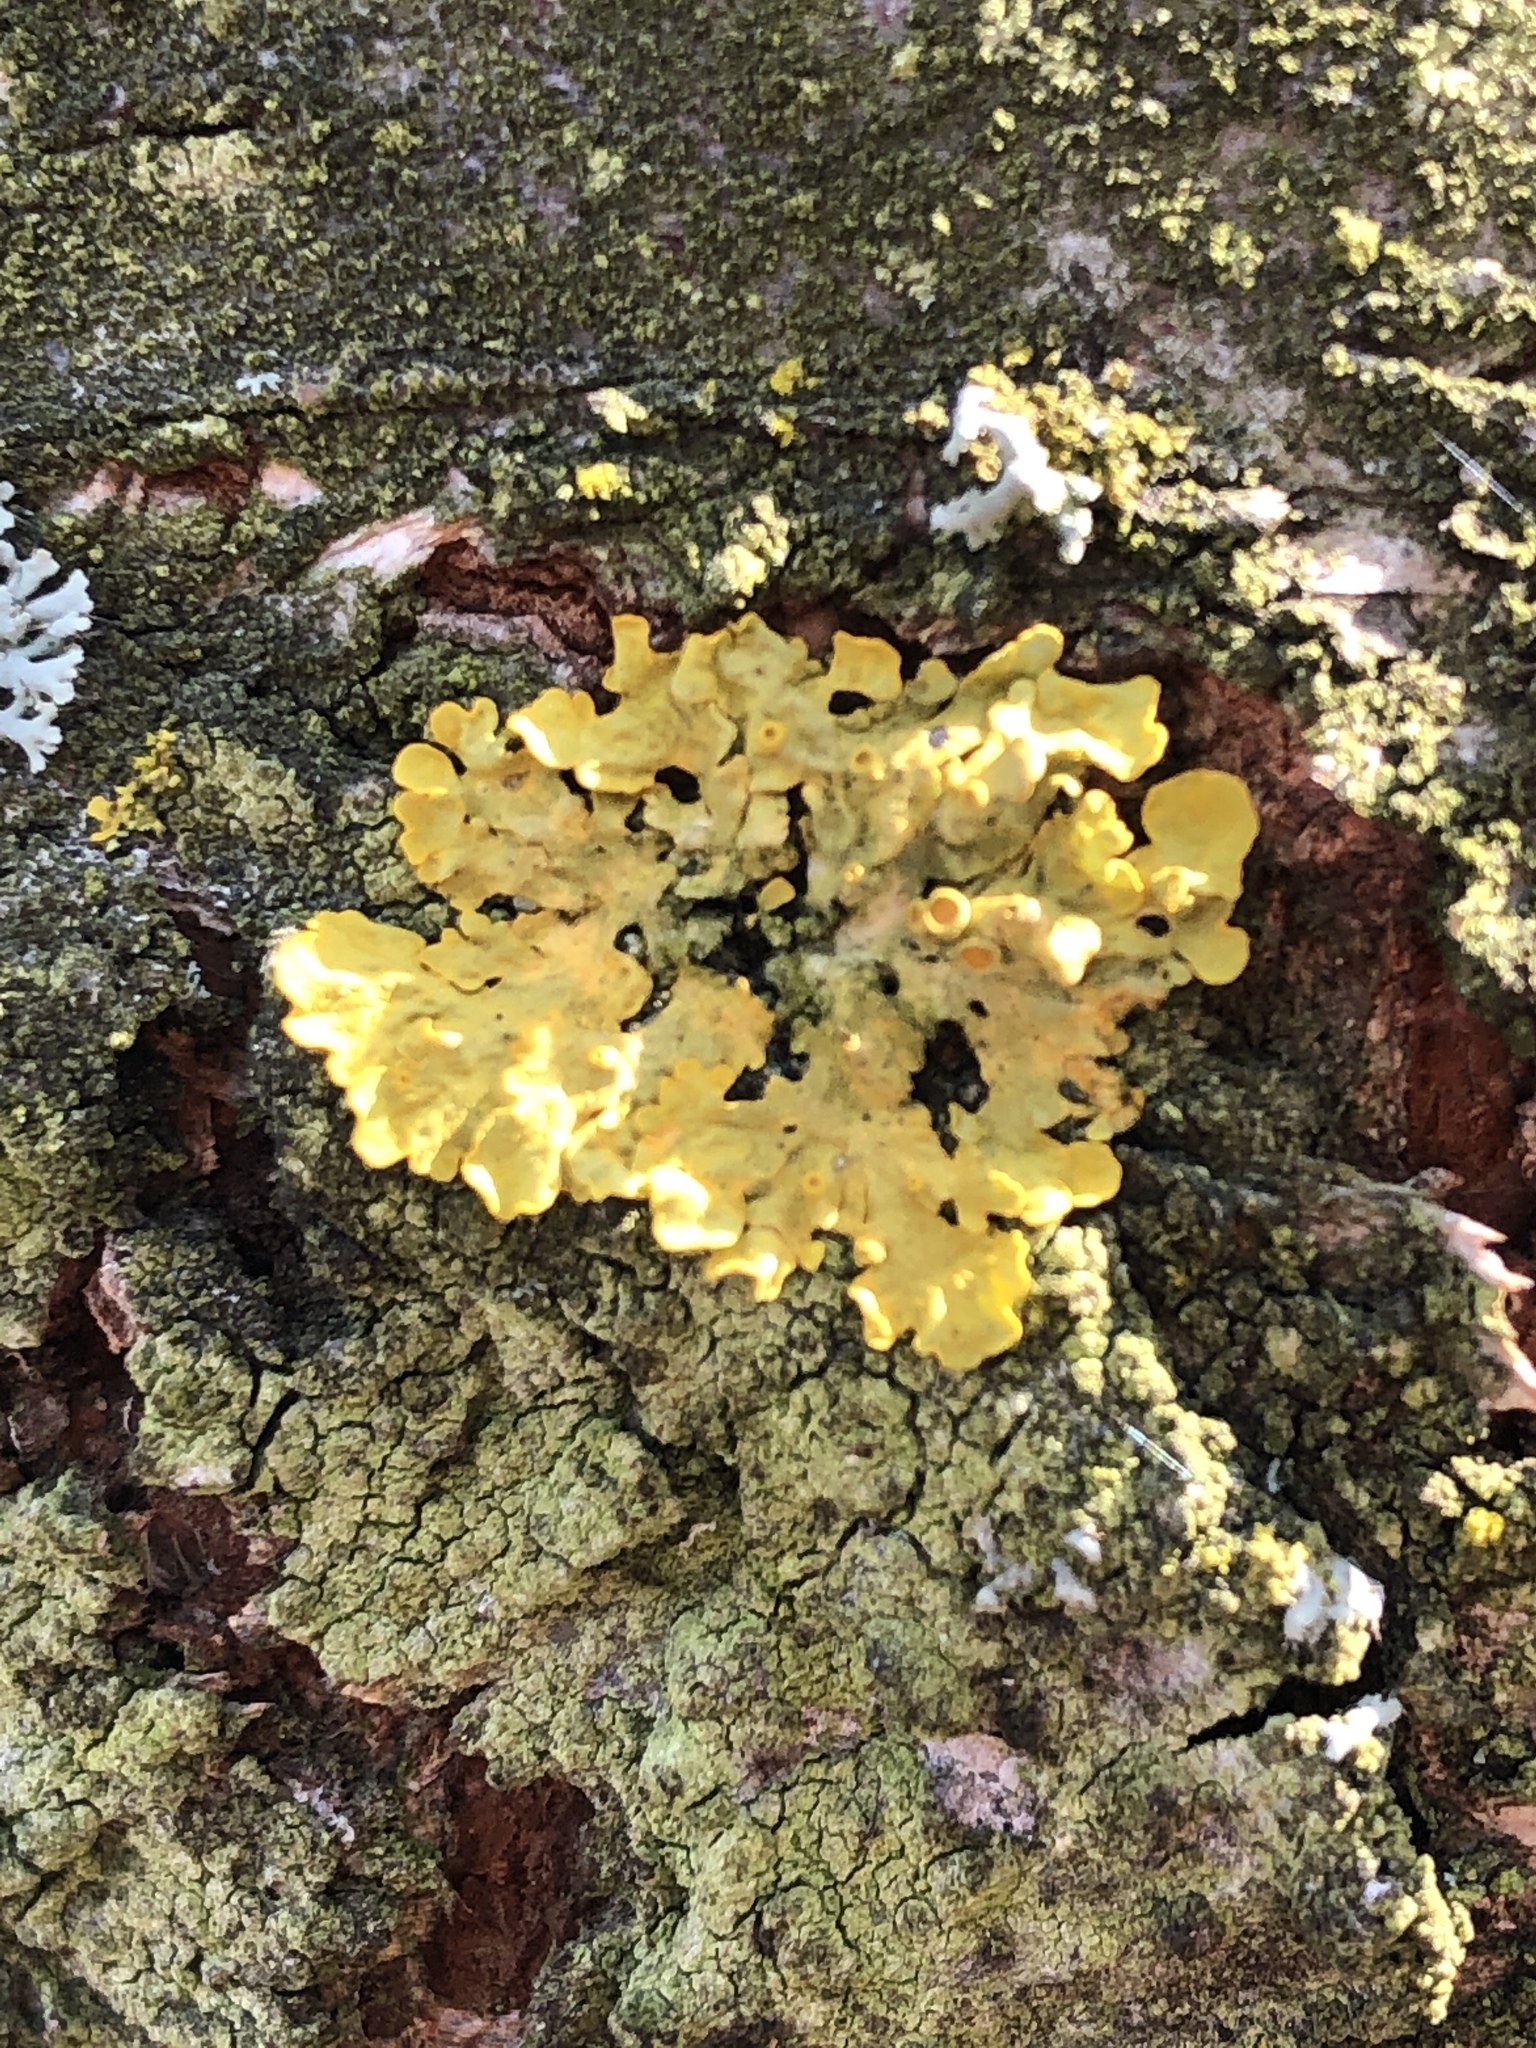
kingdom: Fungi
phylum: Ascomycota
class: Lecanoromycetes
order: Teloschistales
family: Teloschistaceae
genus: Xanthoria
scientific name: Xanthoria parietina
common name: Common orange lichen
